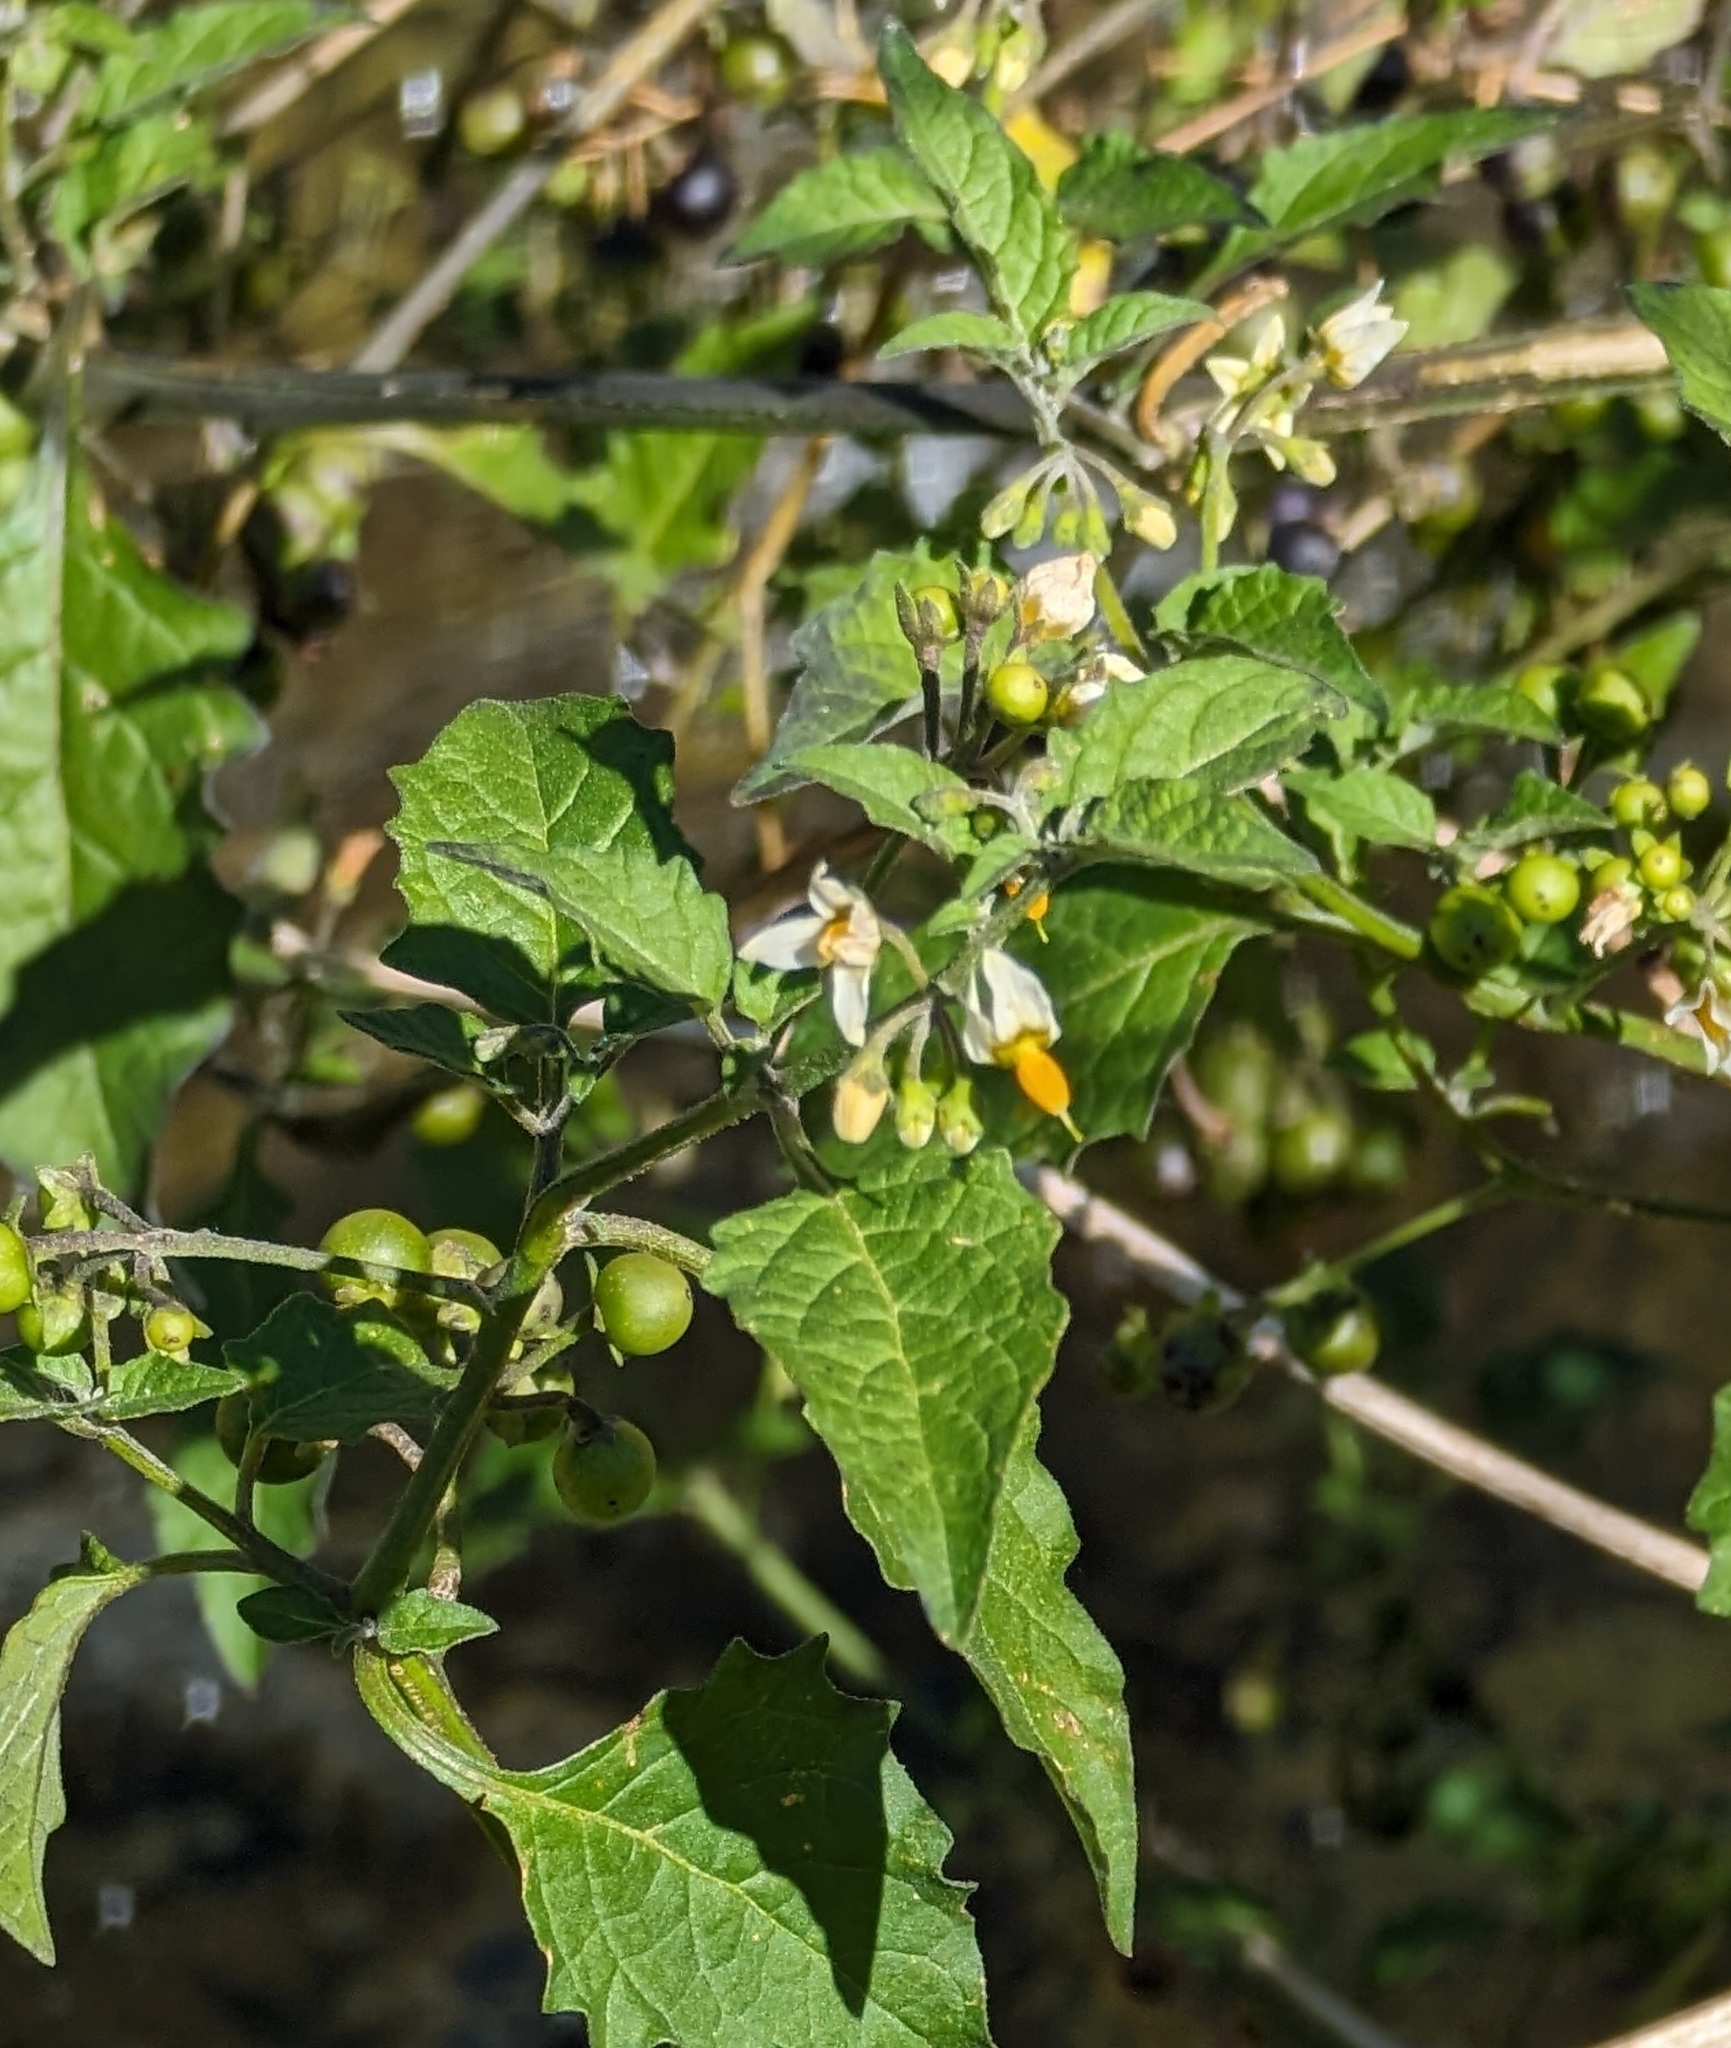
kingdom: Plantae
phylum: Tracheophyta
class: Magnoliopsida
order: Solanales
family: Solanaceae
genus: Solanum
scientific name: Solanum douglasii
